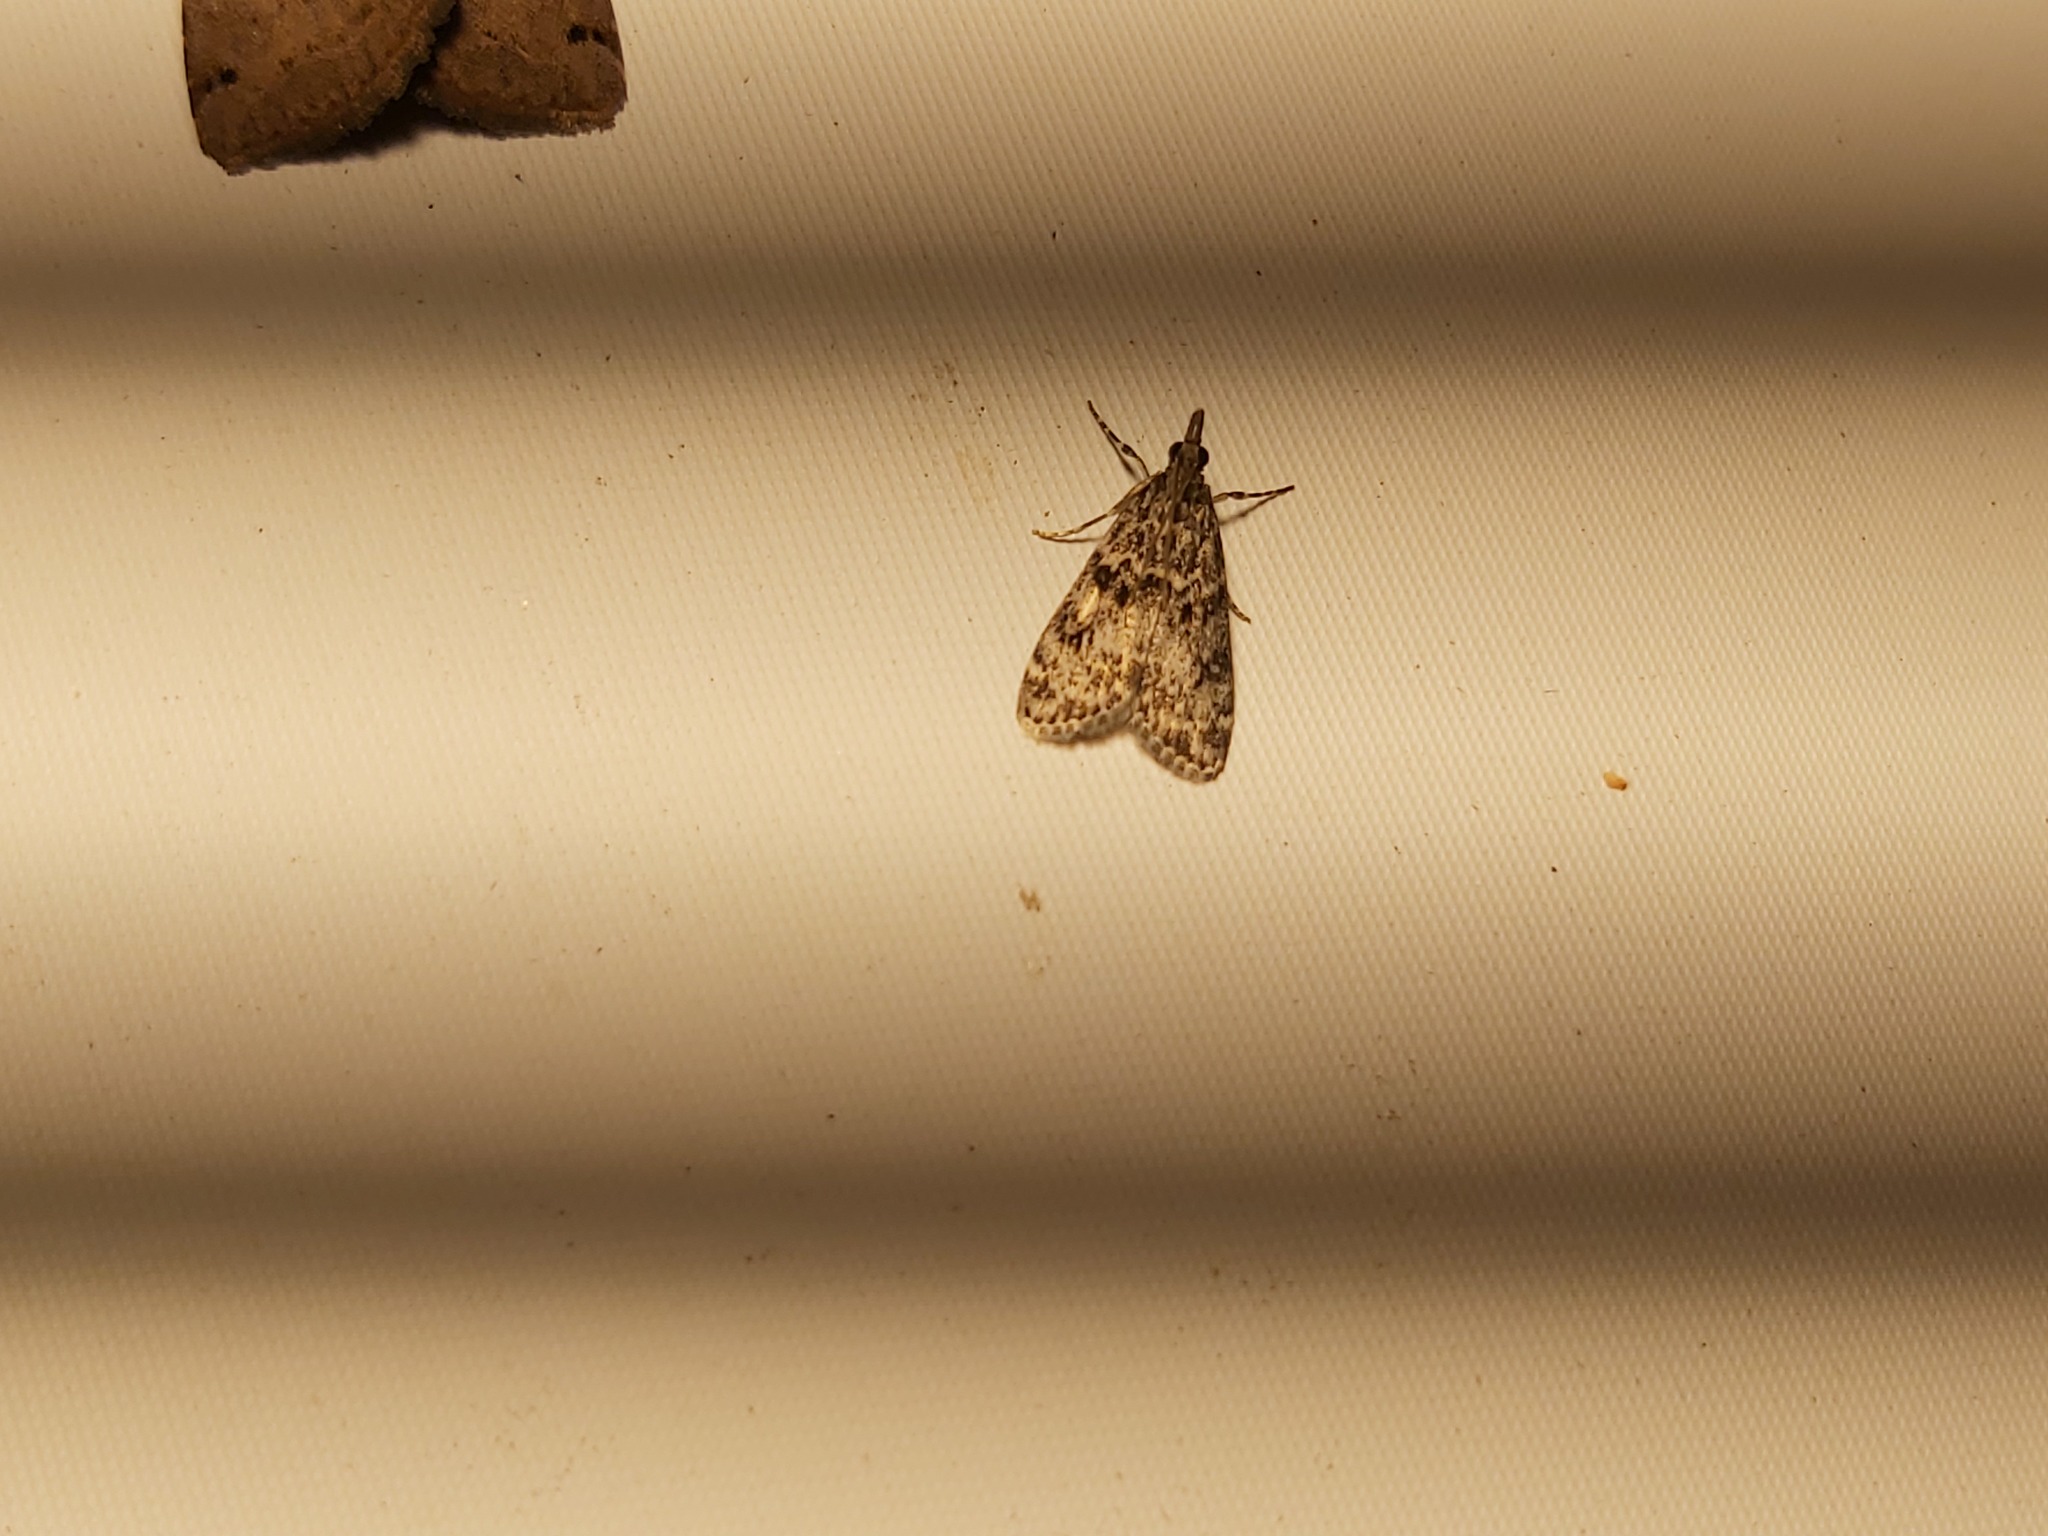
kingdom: Animalia
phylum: Arthropoda
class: Insecta
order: Lepidoptera
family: Crambidae
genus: Eudonia
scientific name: Eudonia truncicolella
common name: Ground-moss grey
